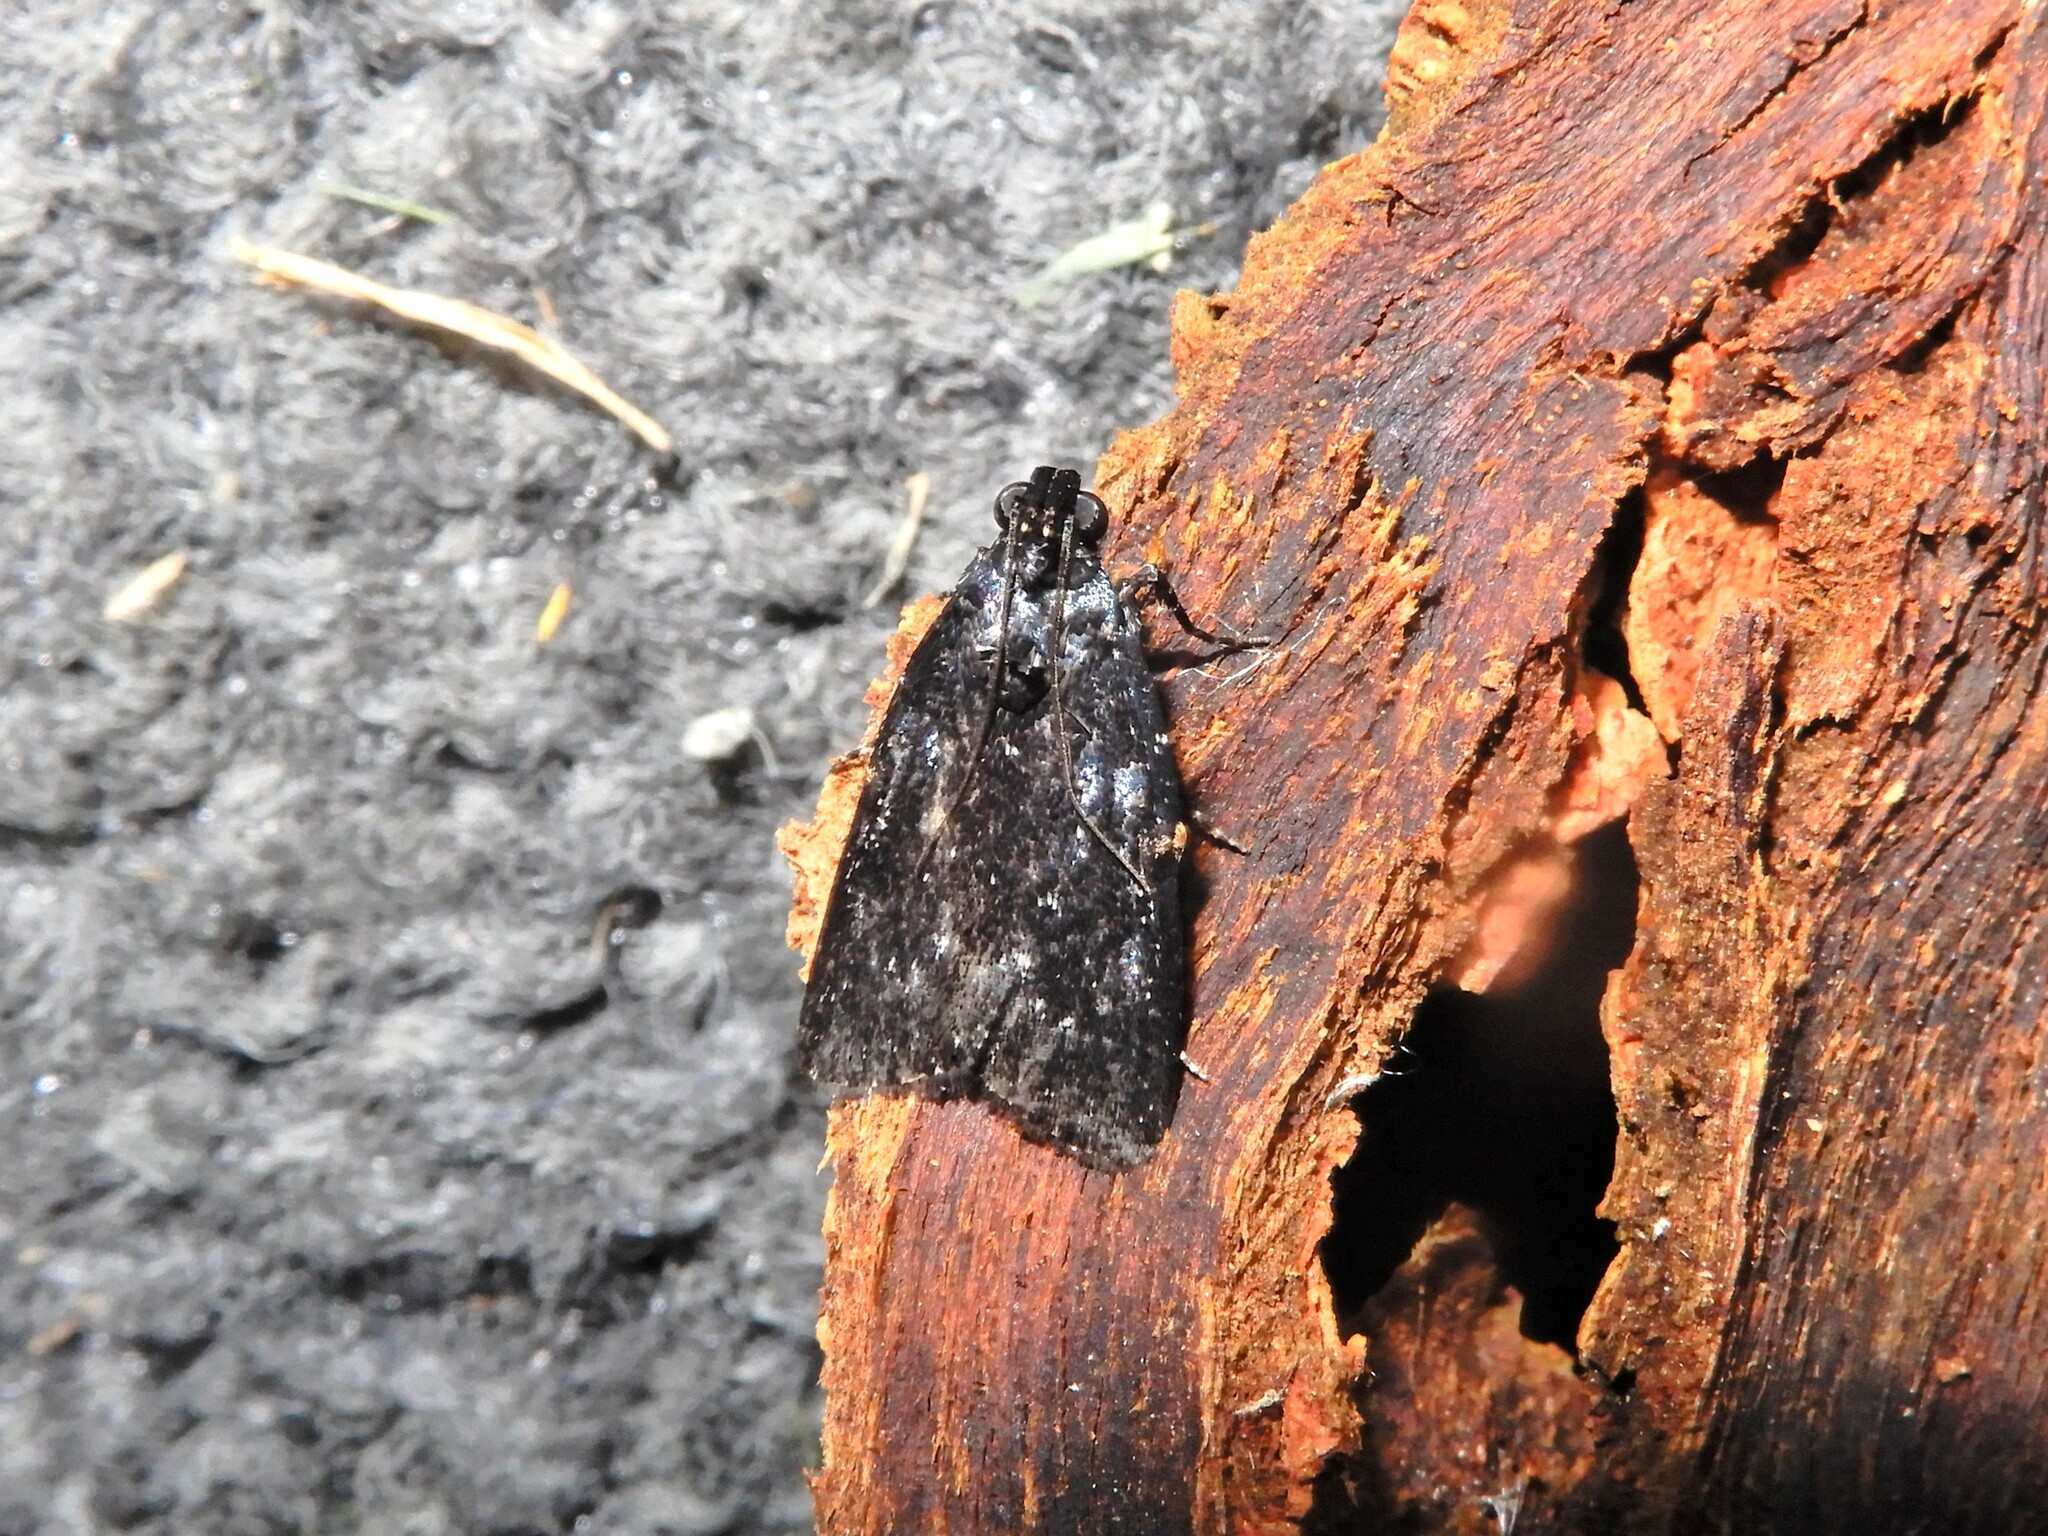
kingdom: Animalia
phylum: Arthropoda
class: Insecta
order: Lepidoptera
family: Pyralidae
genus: Stericta
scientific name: Stericta carbonalis
